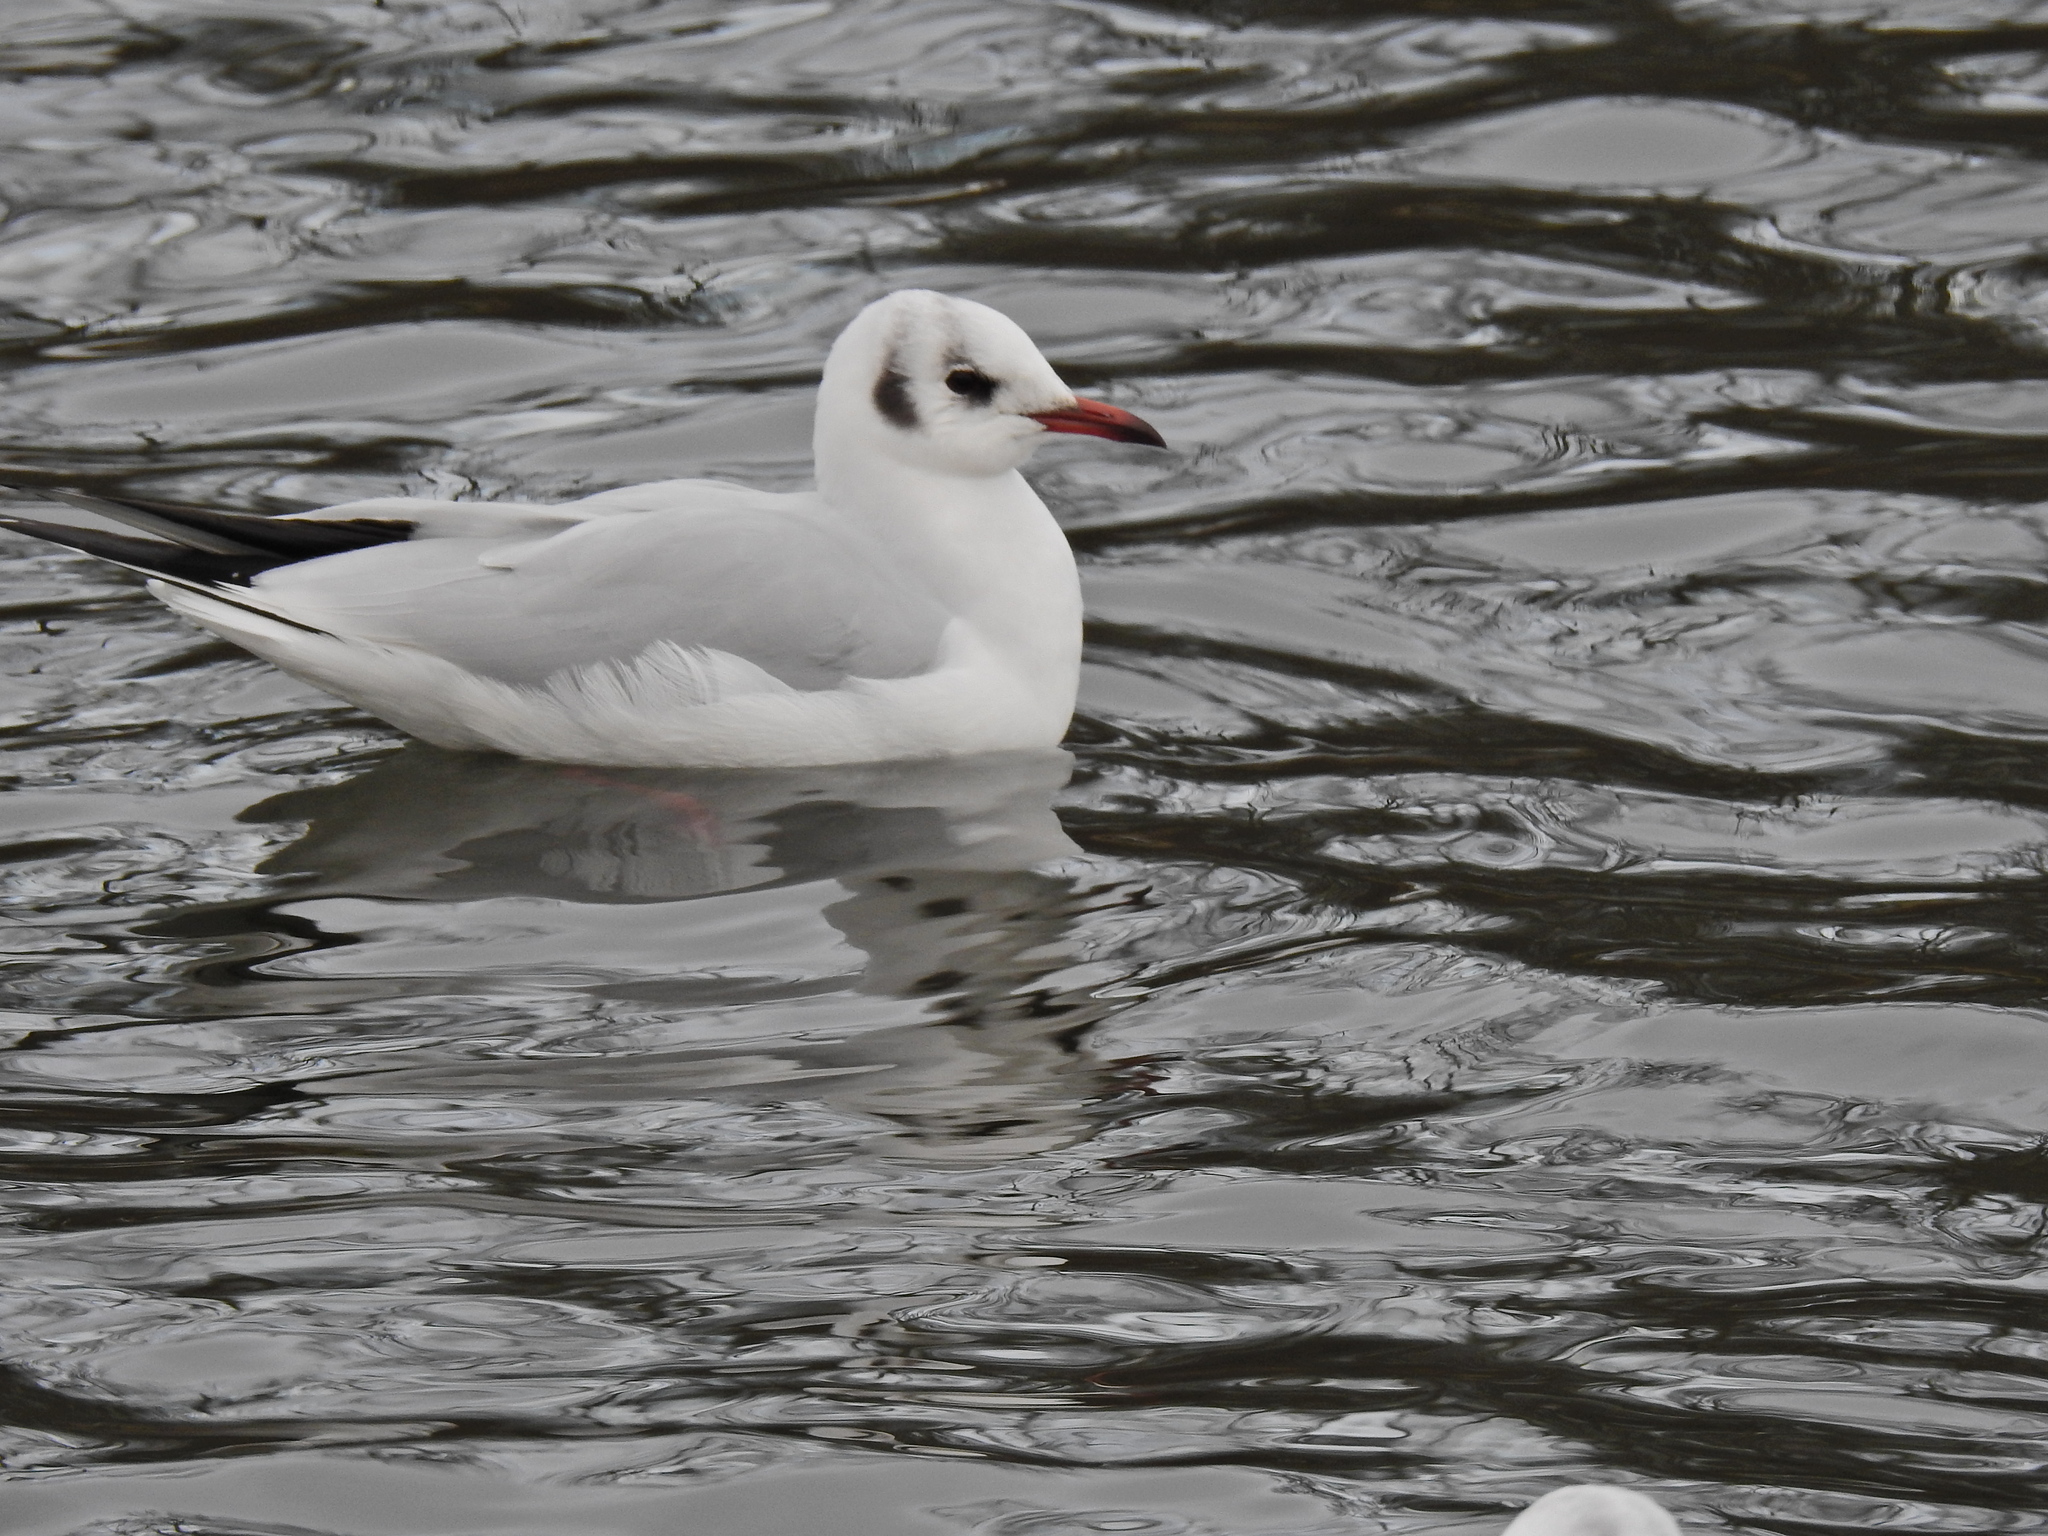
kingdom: Animalia
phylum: Chordata
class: Aves
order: Charadriiformes
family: Laridae
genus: Chroicocephalus
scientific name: Chroicocephalus ridibundus
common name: Black-headed gull
